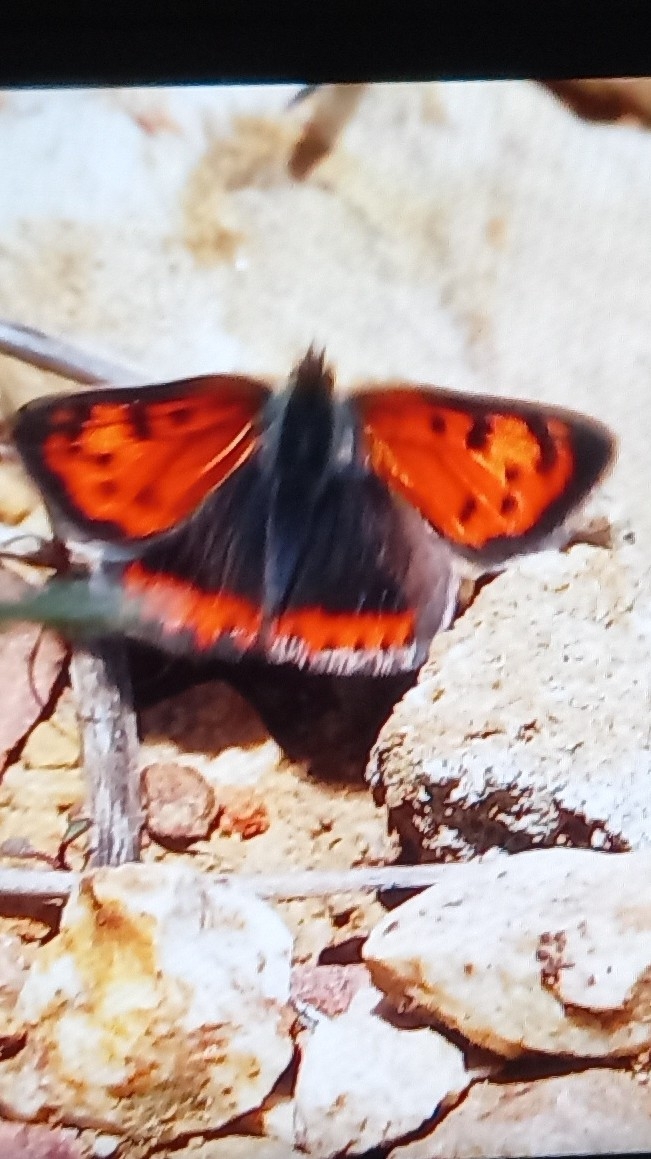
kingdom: Animalia
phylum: Arthropoda
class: Insecta
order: Lepidoptera
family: Lycaenidae
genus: Lycaena
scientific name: Lycaena phlaeas
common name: Small copper
